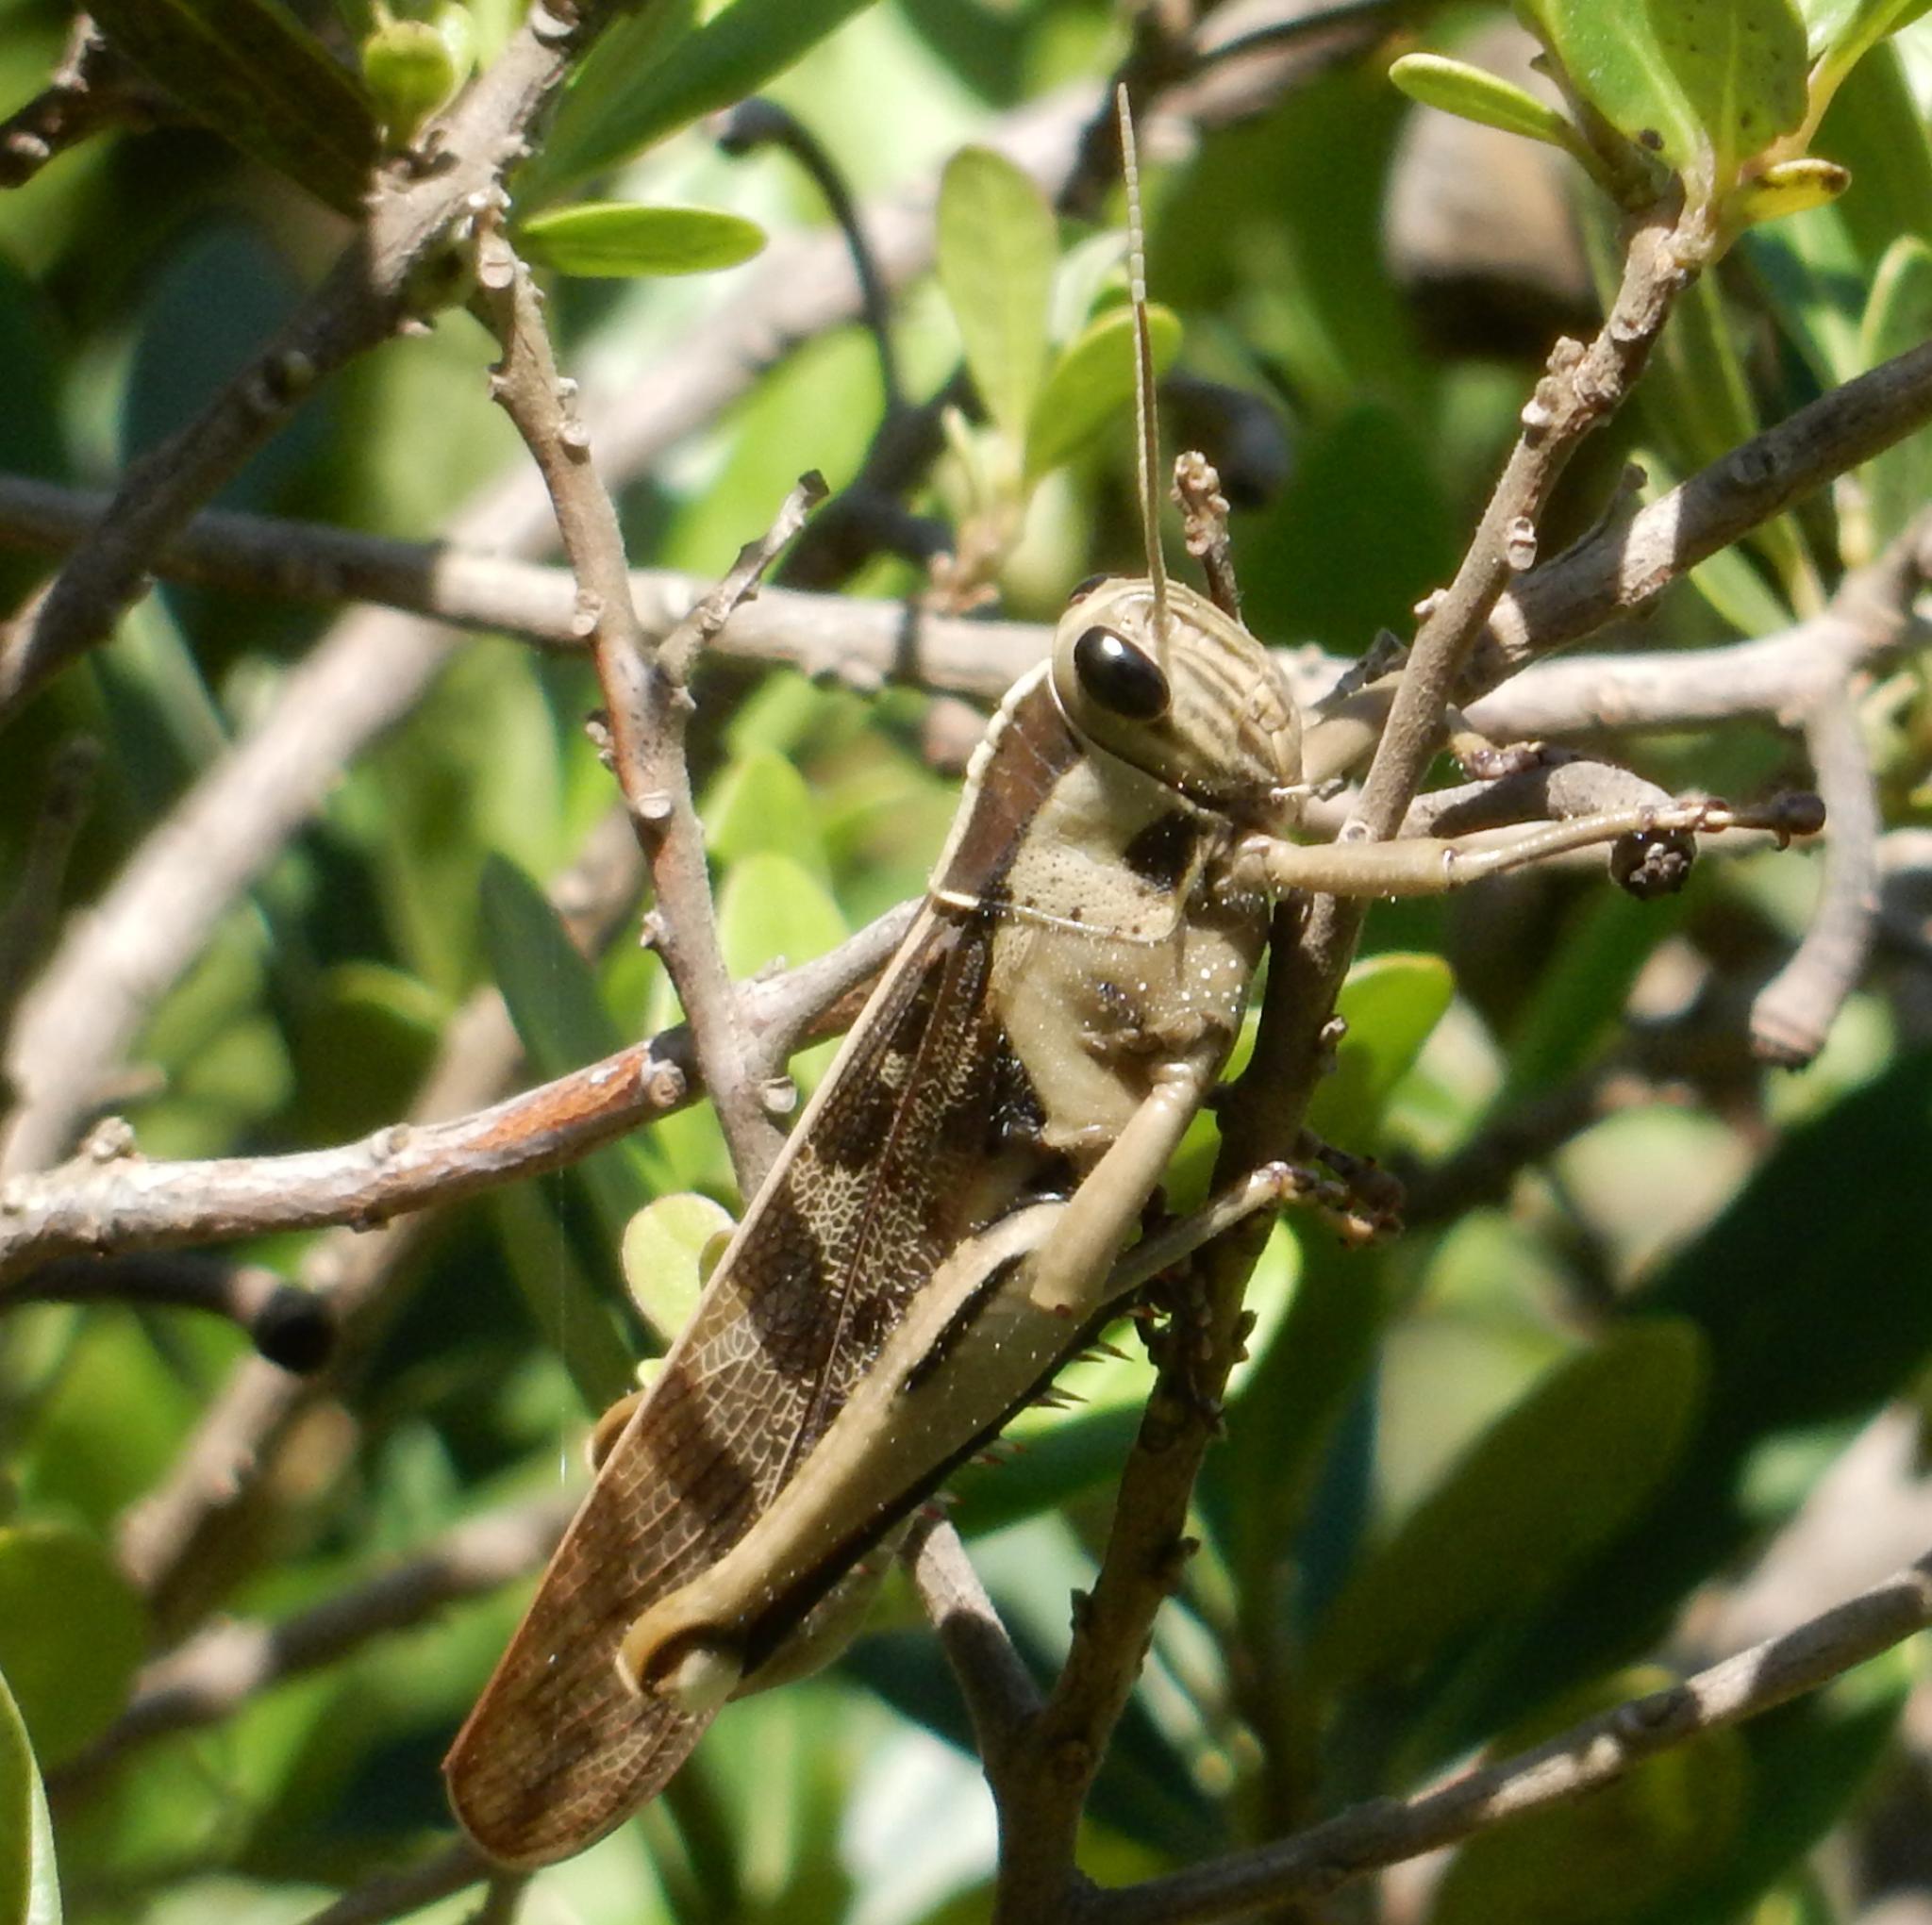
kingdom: Animalia
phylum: Arthropoda
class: Insecta
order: Orthoptera
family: Acrididae
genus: Acanthacris
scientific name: Acanthacris ruficornis
